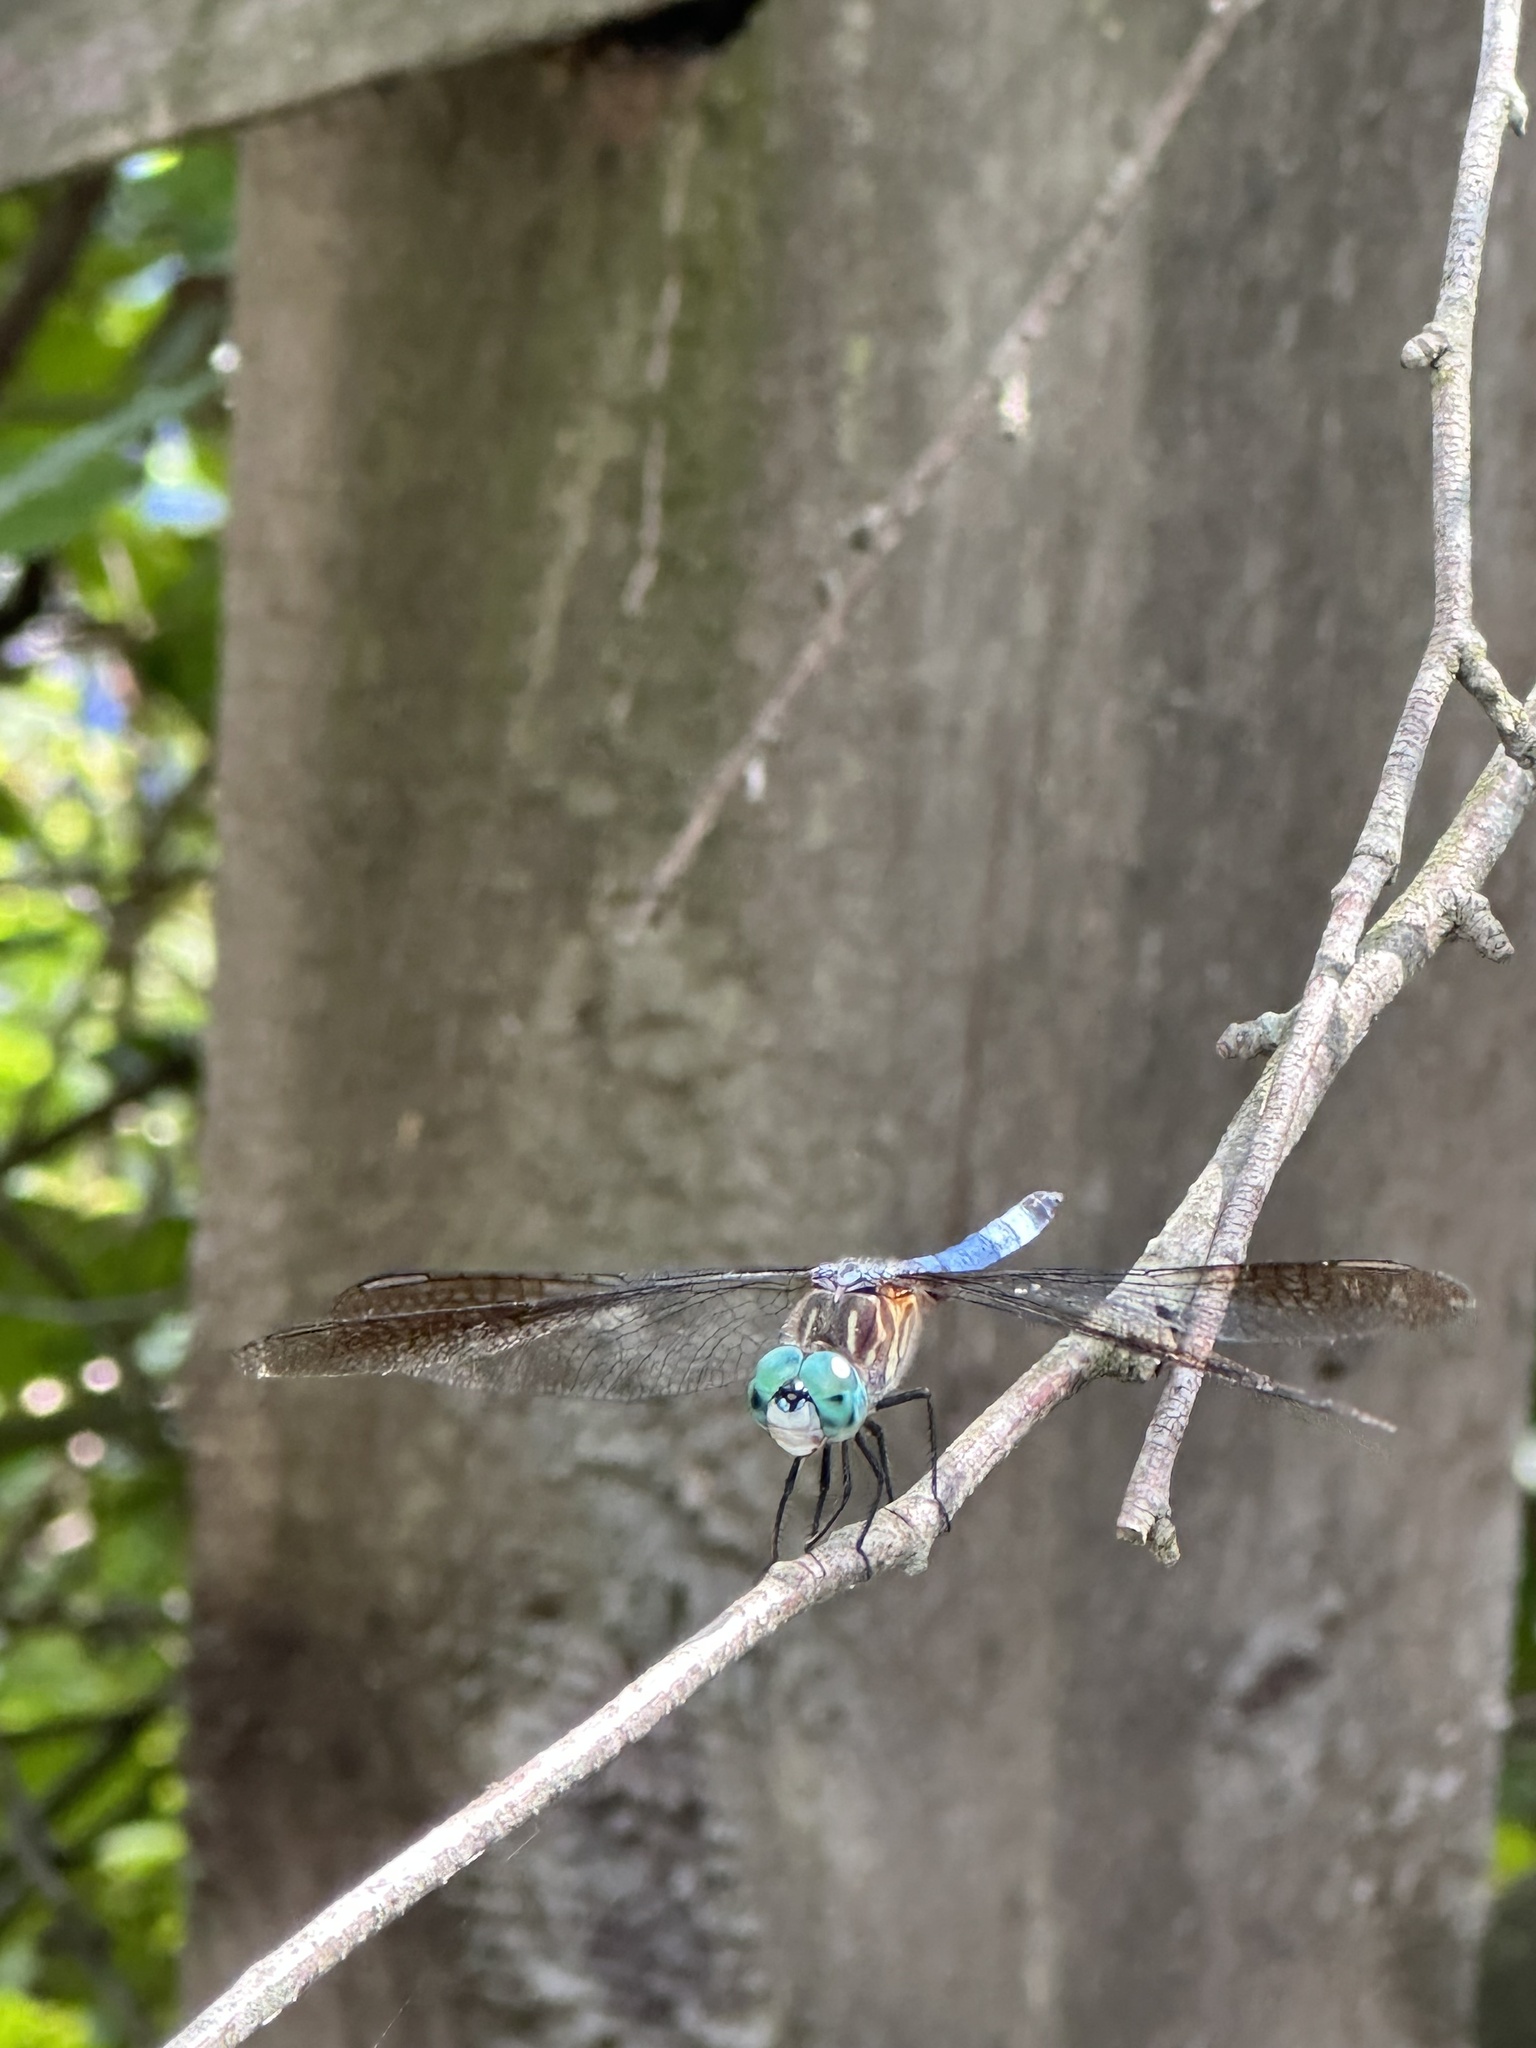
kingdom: Animalia
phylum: Arthropoda
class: Insecta
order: Odonata
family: Libellulidae
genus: Pachydiplax
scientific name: Pachydiplax longipennis
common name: Blue dasher
